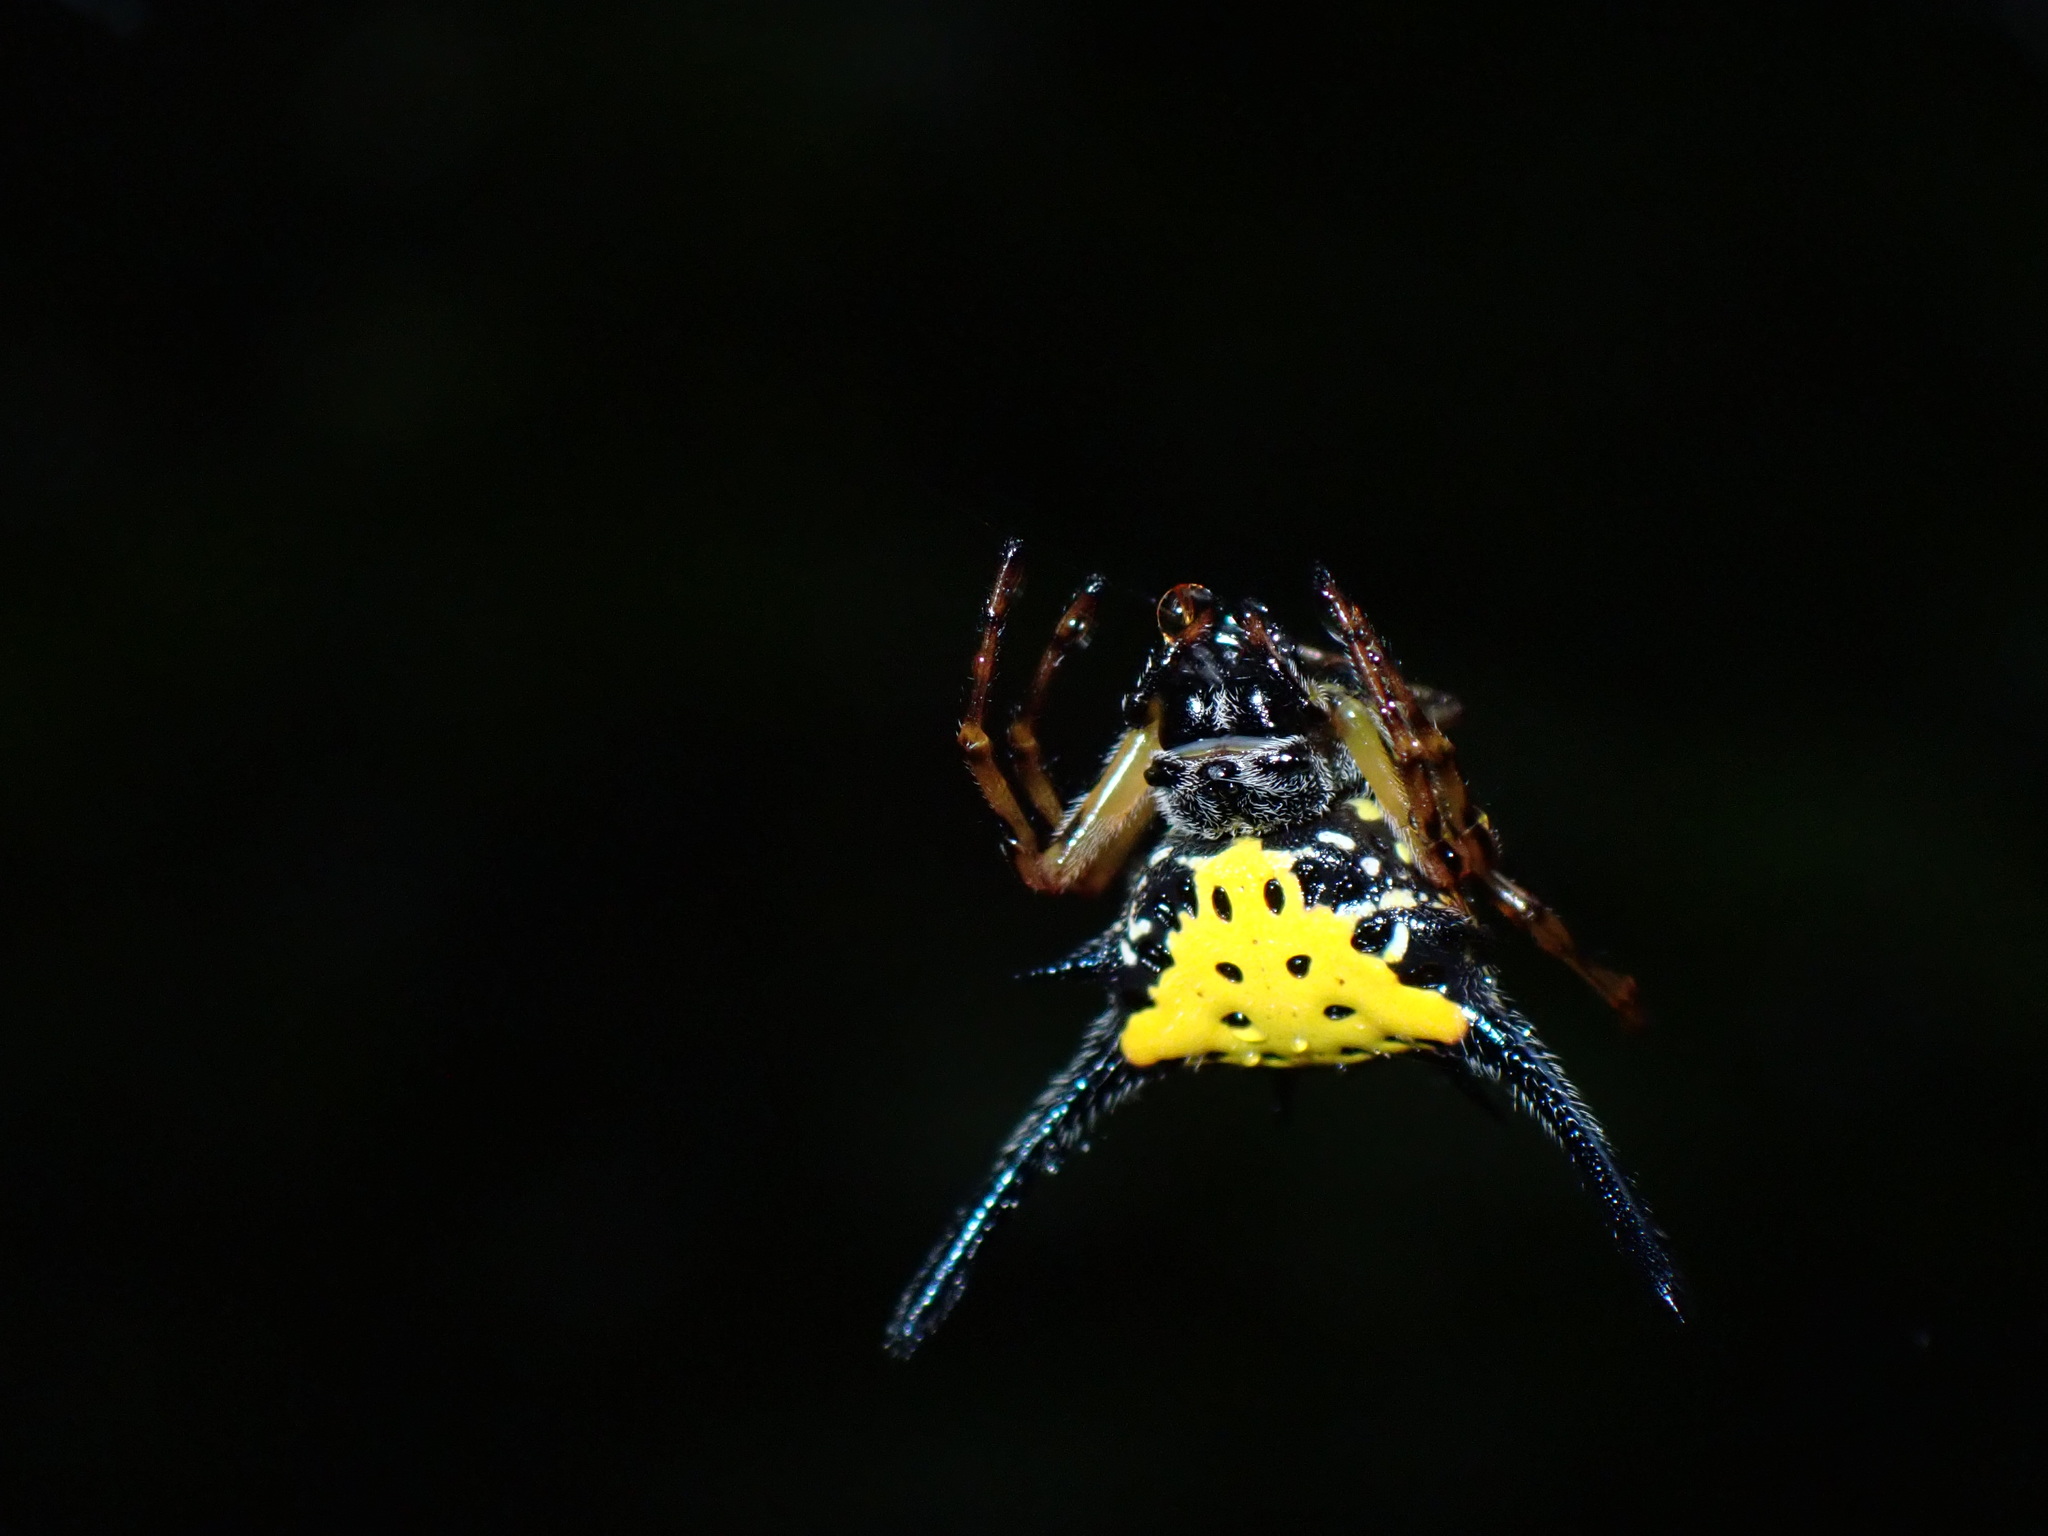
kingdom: Animalia
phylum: Arthropoda
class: Arachnida
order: Araneae
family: Araneidae
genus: Macracantha
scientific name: Macracantha hasselti
